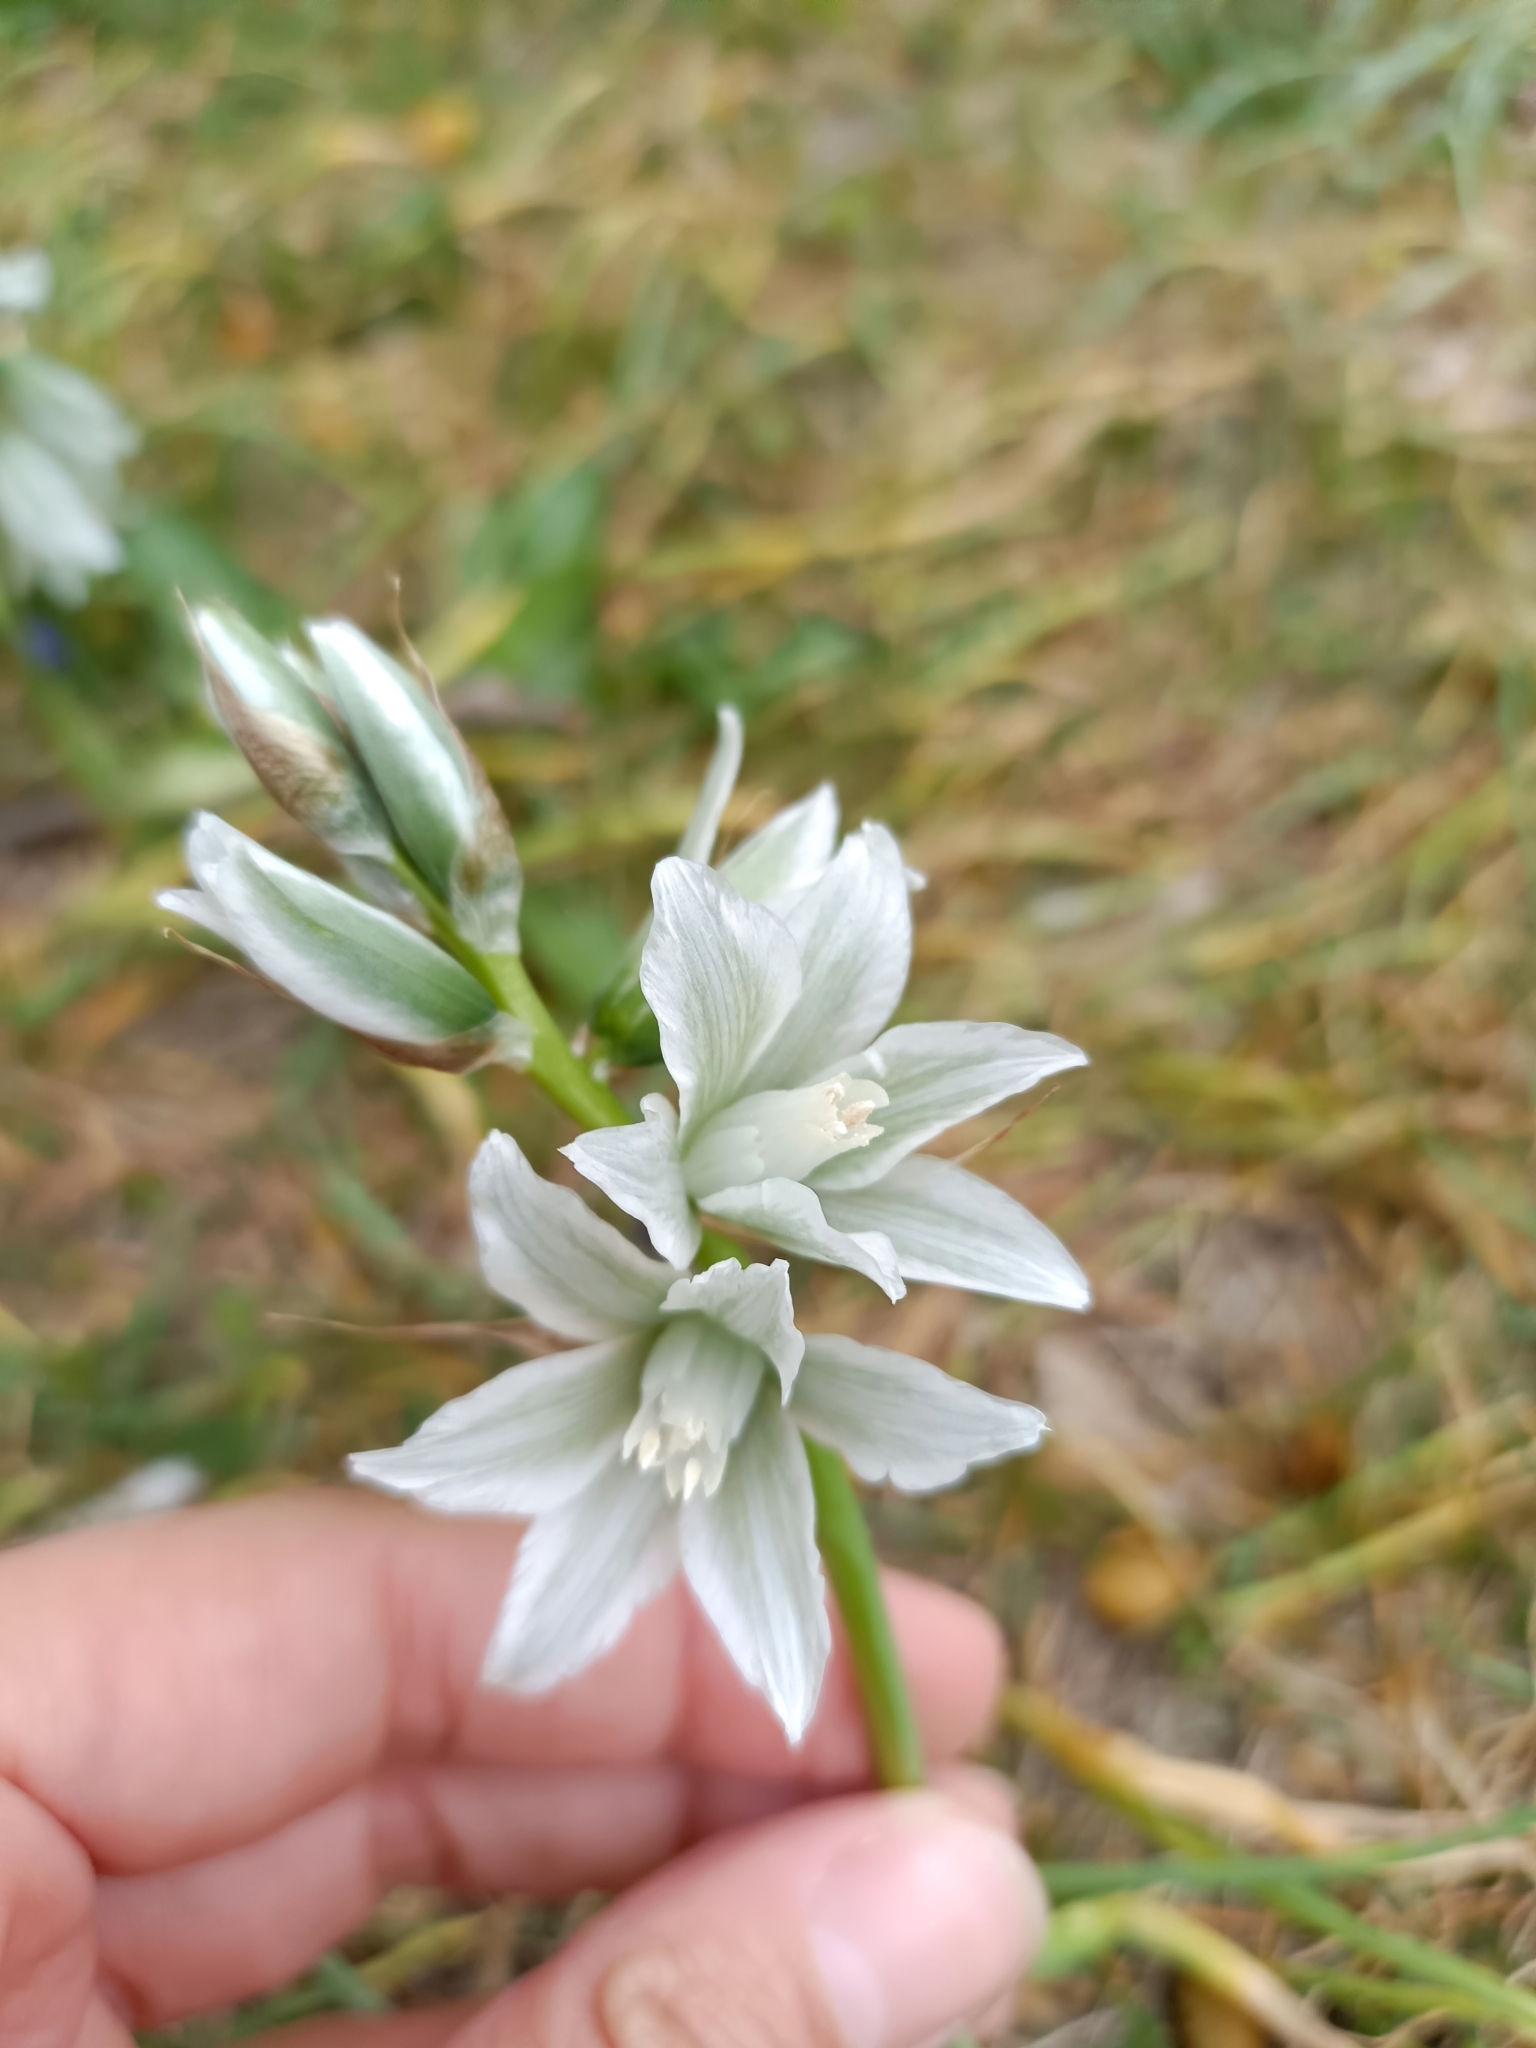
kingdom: Plantae
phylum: Tracheophyta
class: Liliopsida
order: Asparagales
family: Asparagaceae
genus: Ornithogalum
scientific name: Ornithogalum boucheanum
